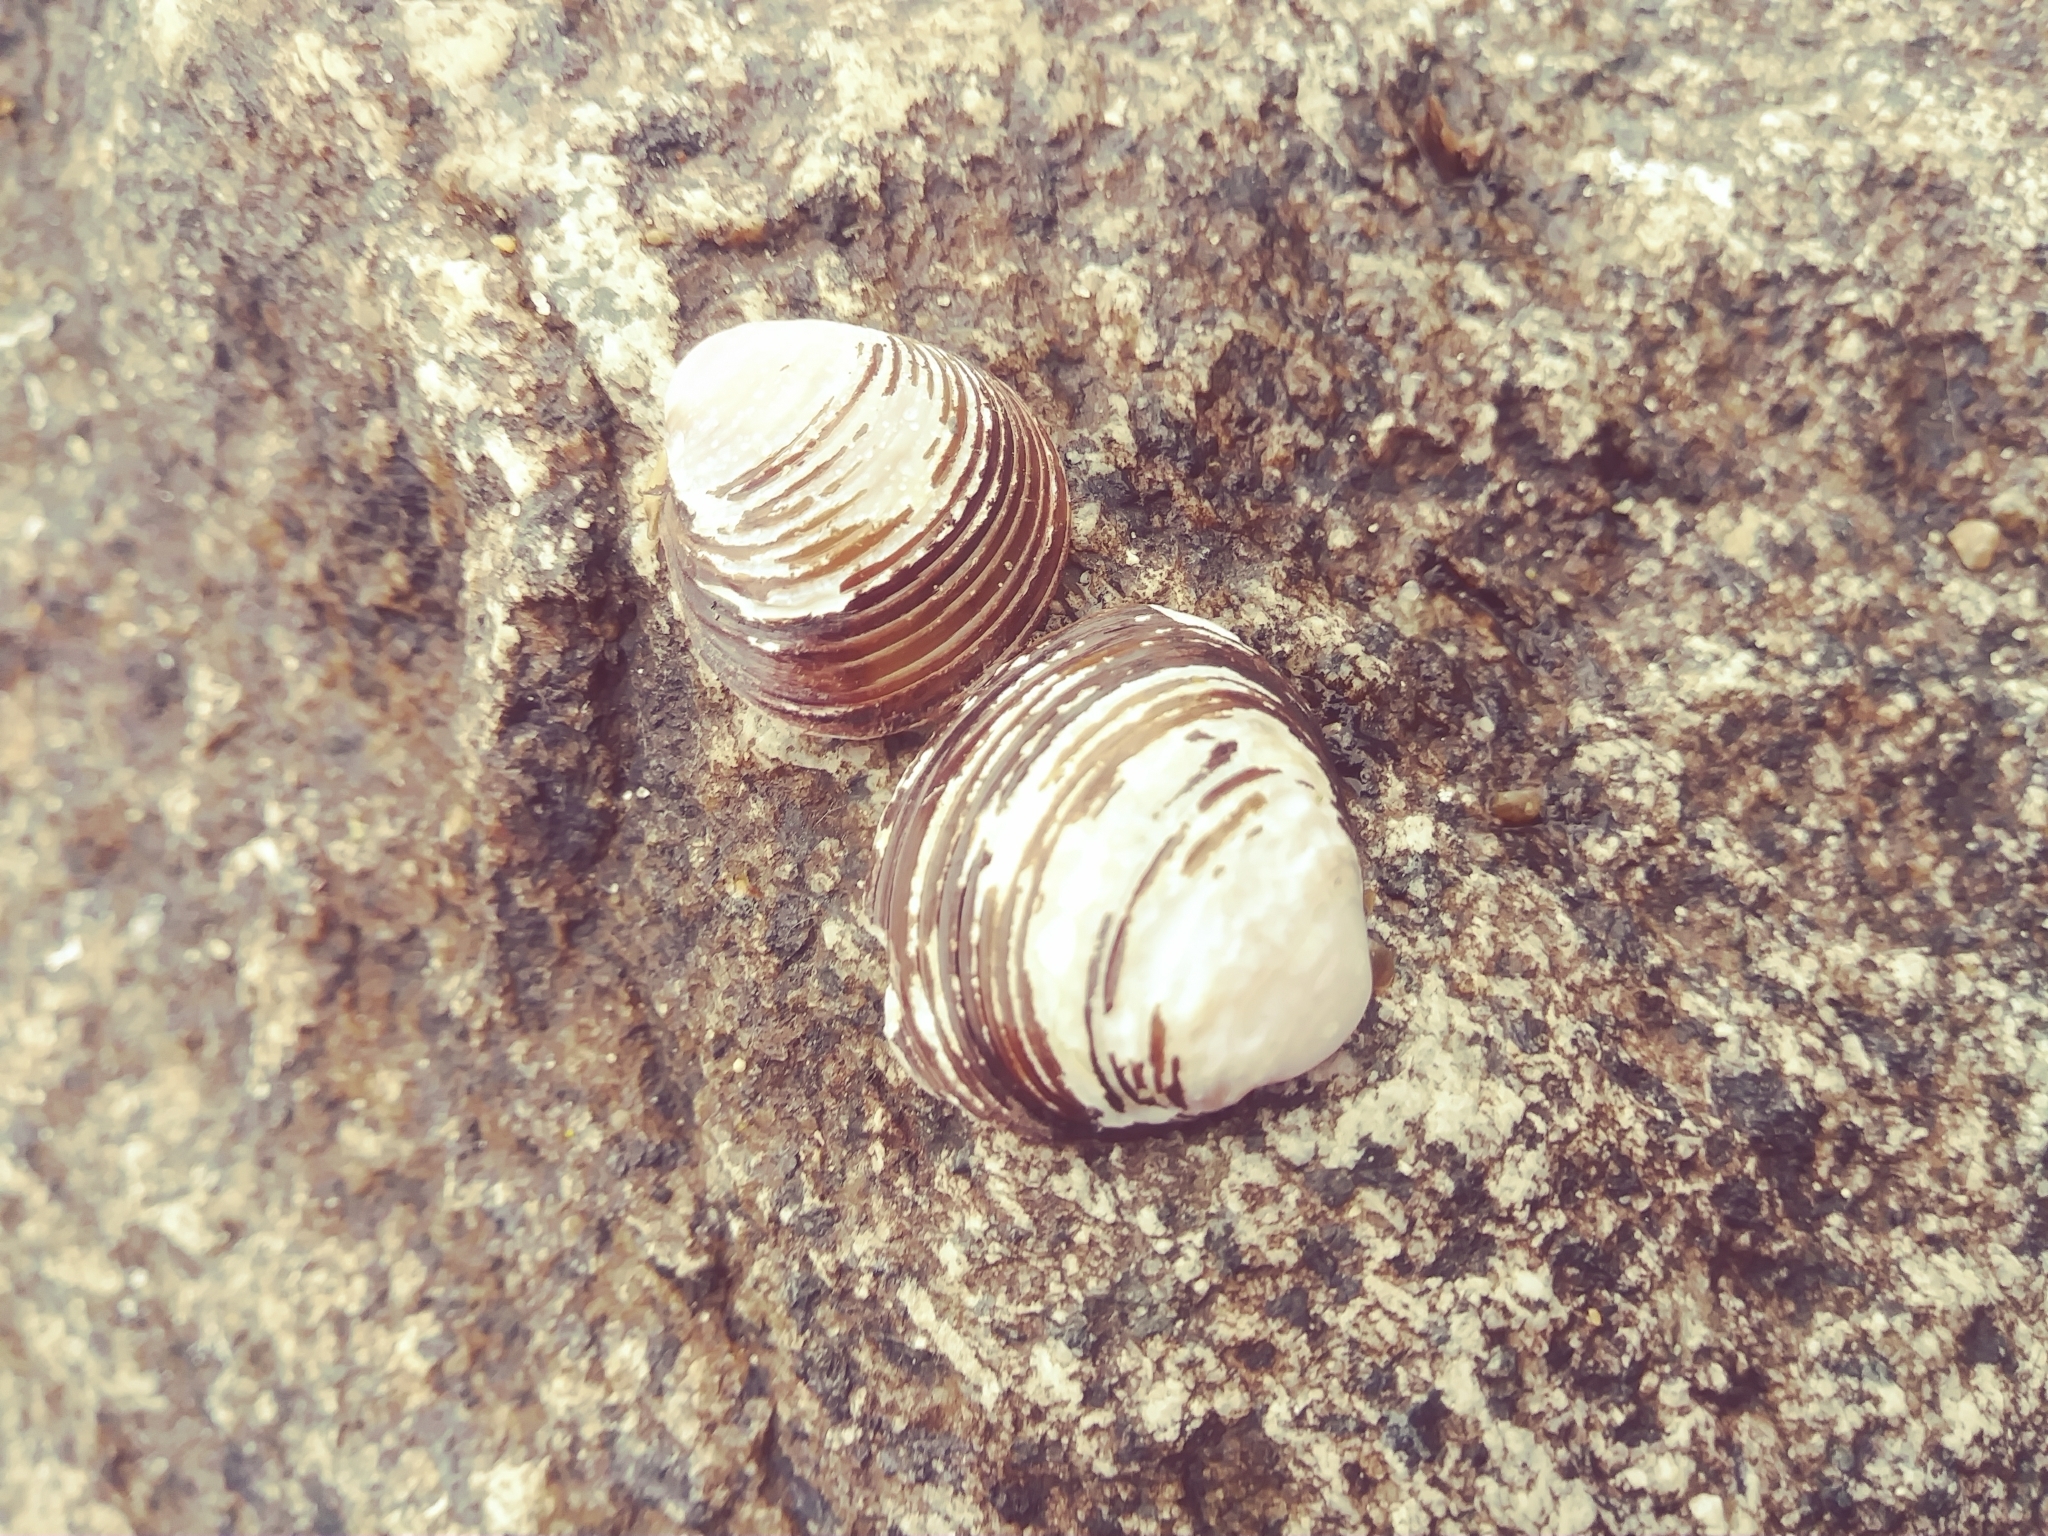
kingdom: Animalia
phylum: Mollusca
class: Bivalvia
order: Venerida
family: Cyrenidae
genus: Corbicula
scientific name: Corbicula fluminea
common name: Asian clam
